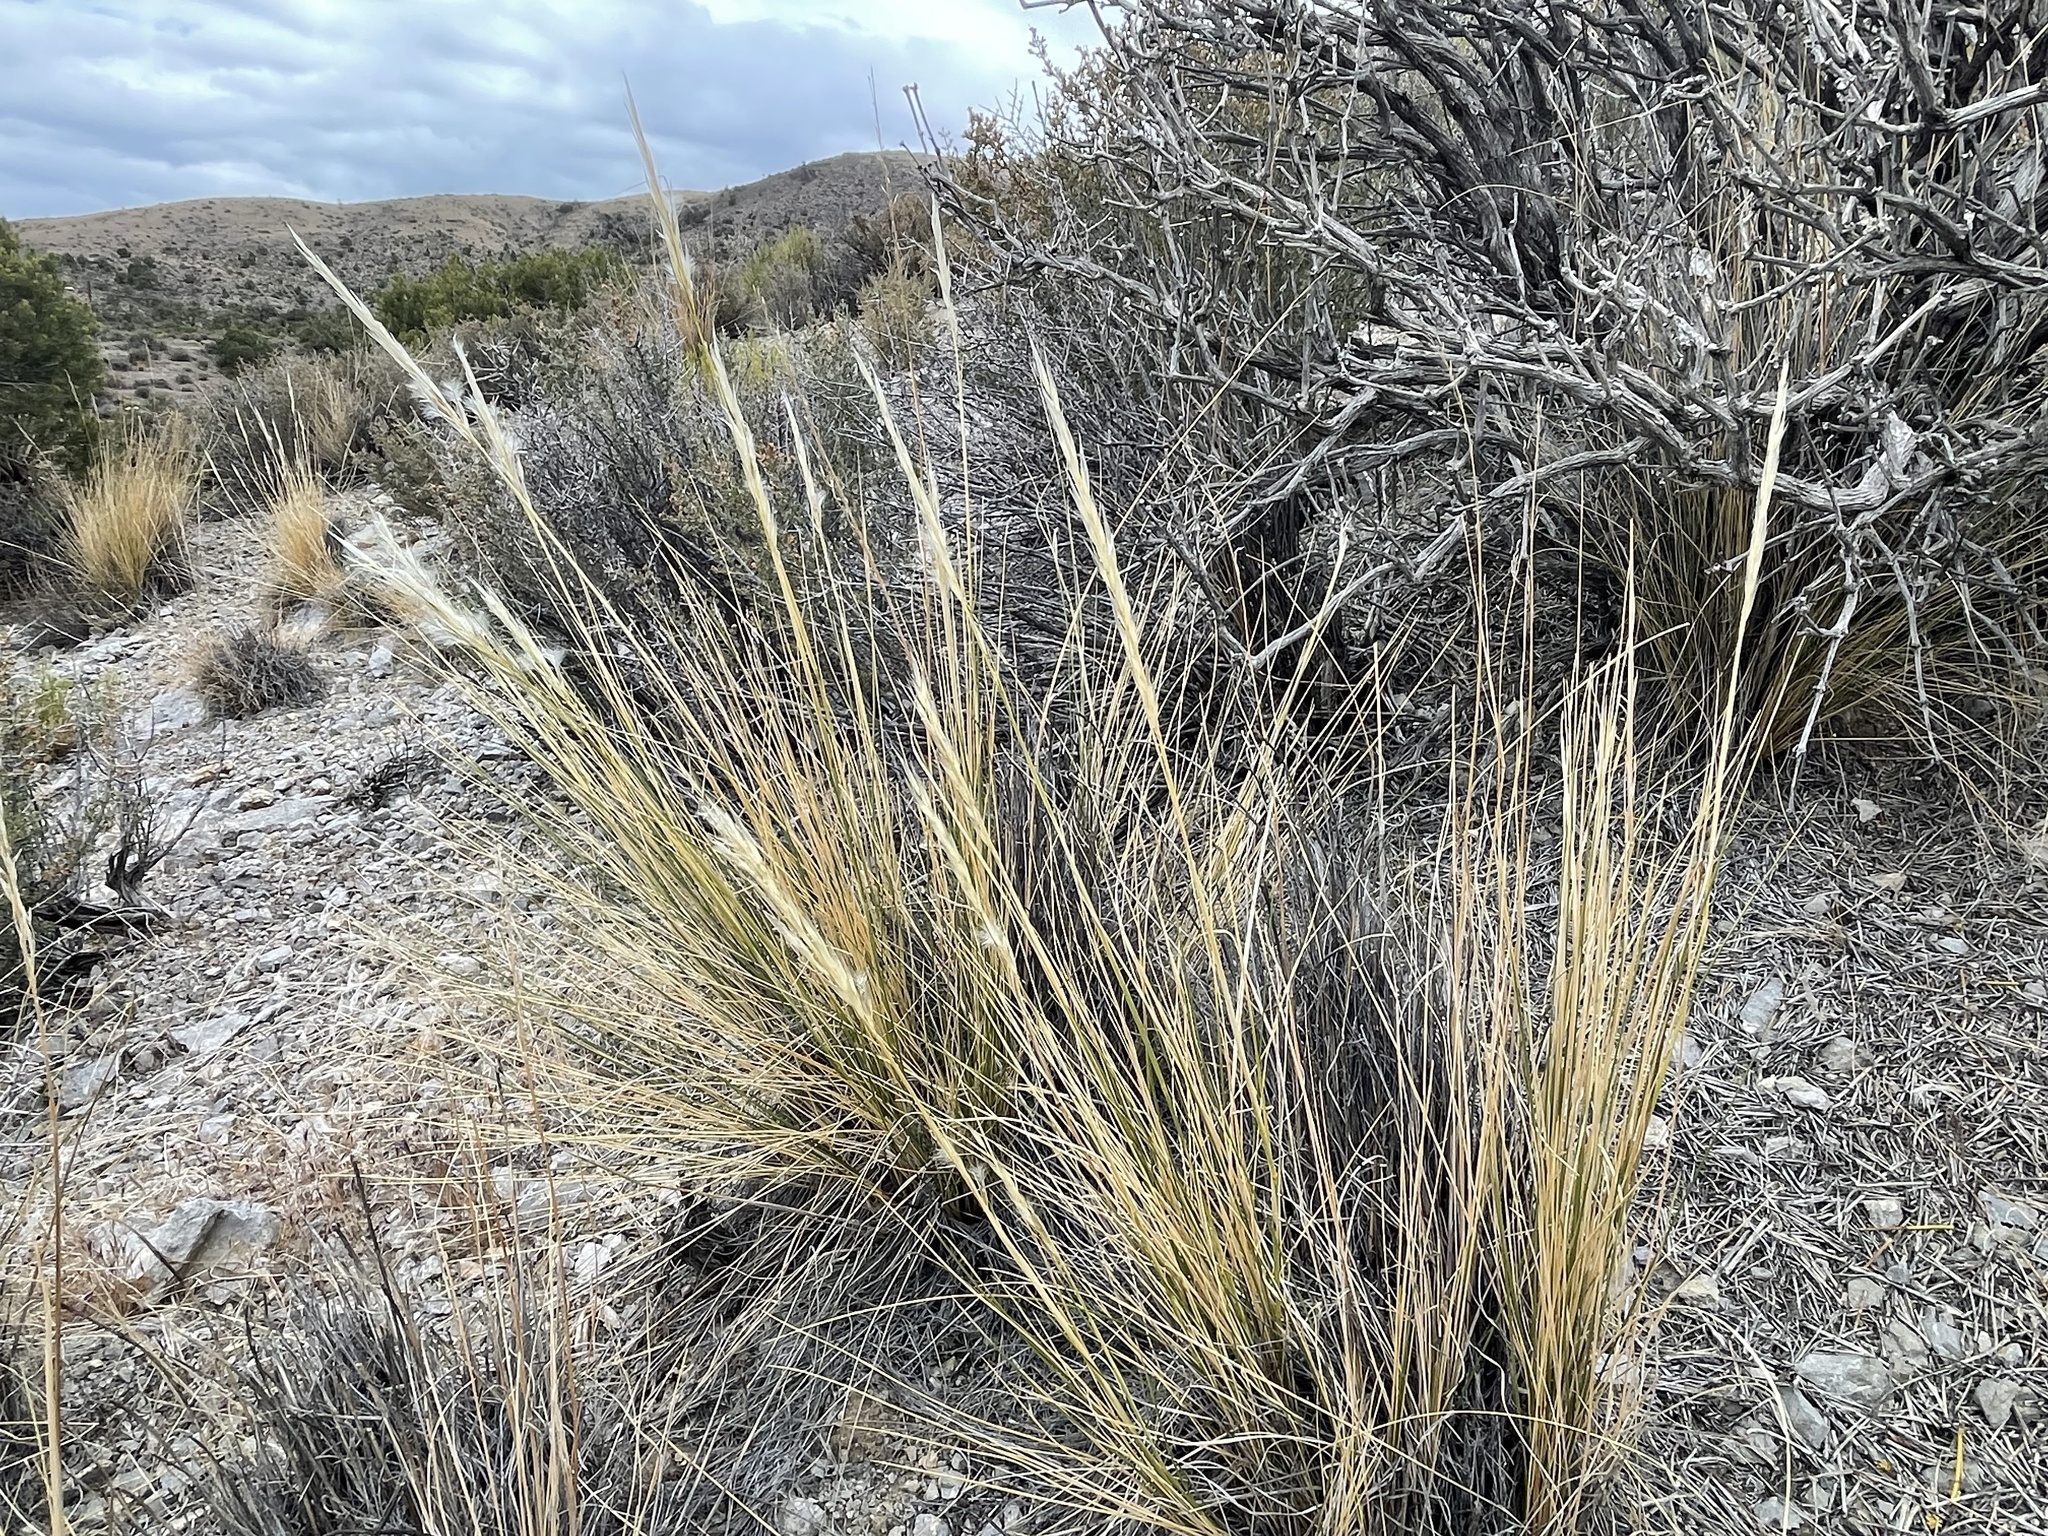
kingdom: Plantae
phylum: Tracheophyta
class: Liliopsida
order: Poales
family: Poaceae
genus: Pappostipa
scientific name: Pappostipa speciosa
